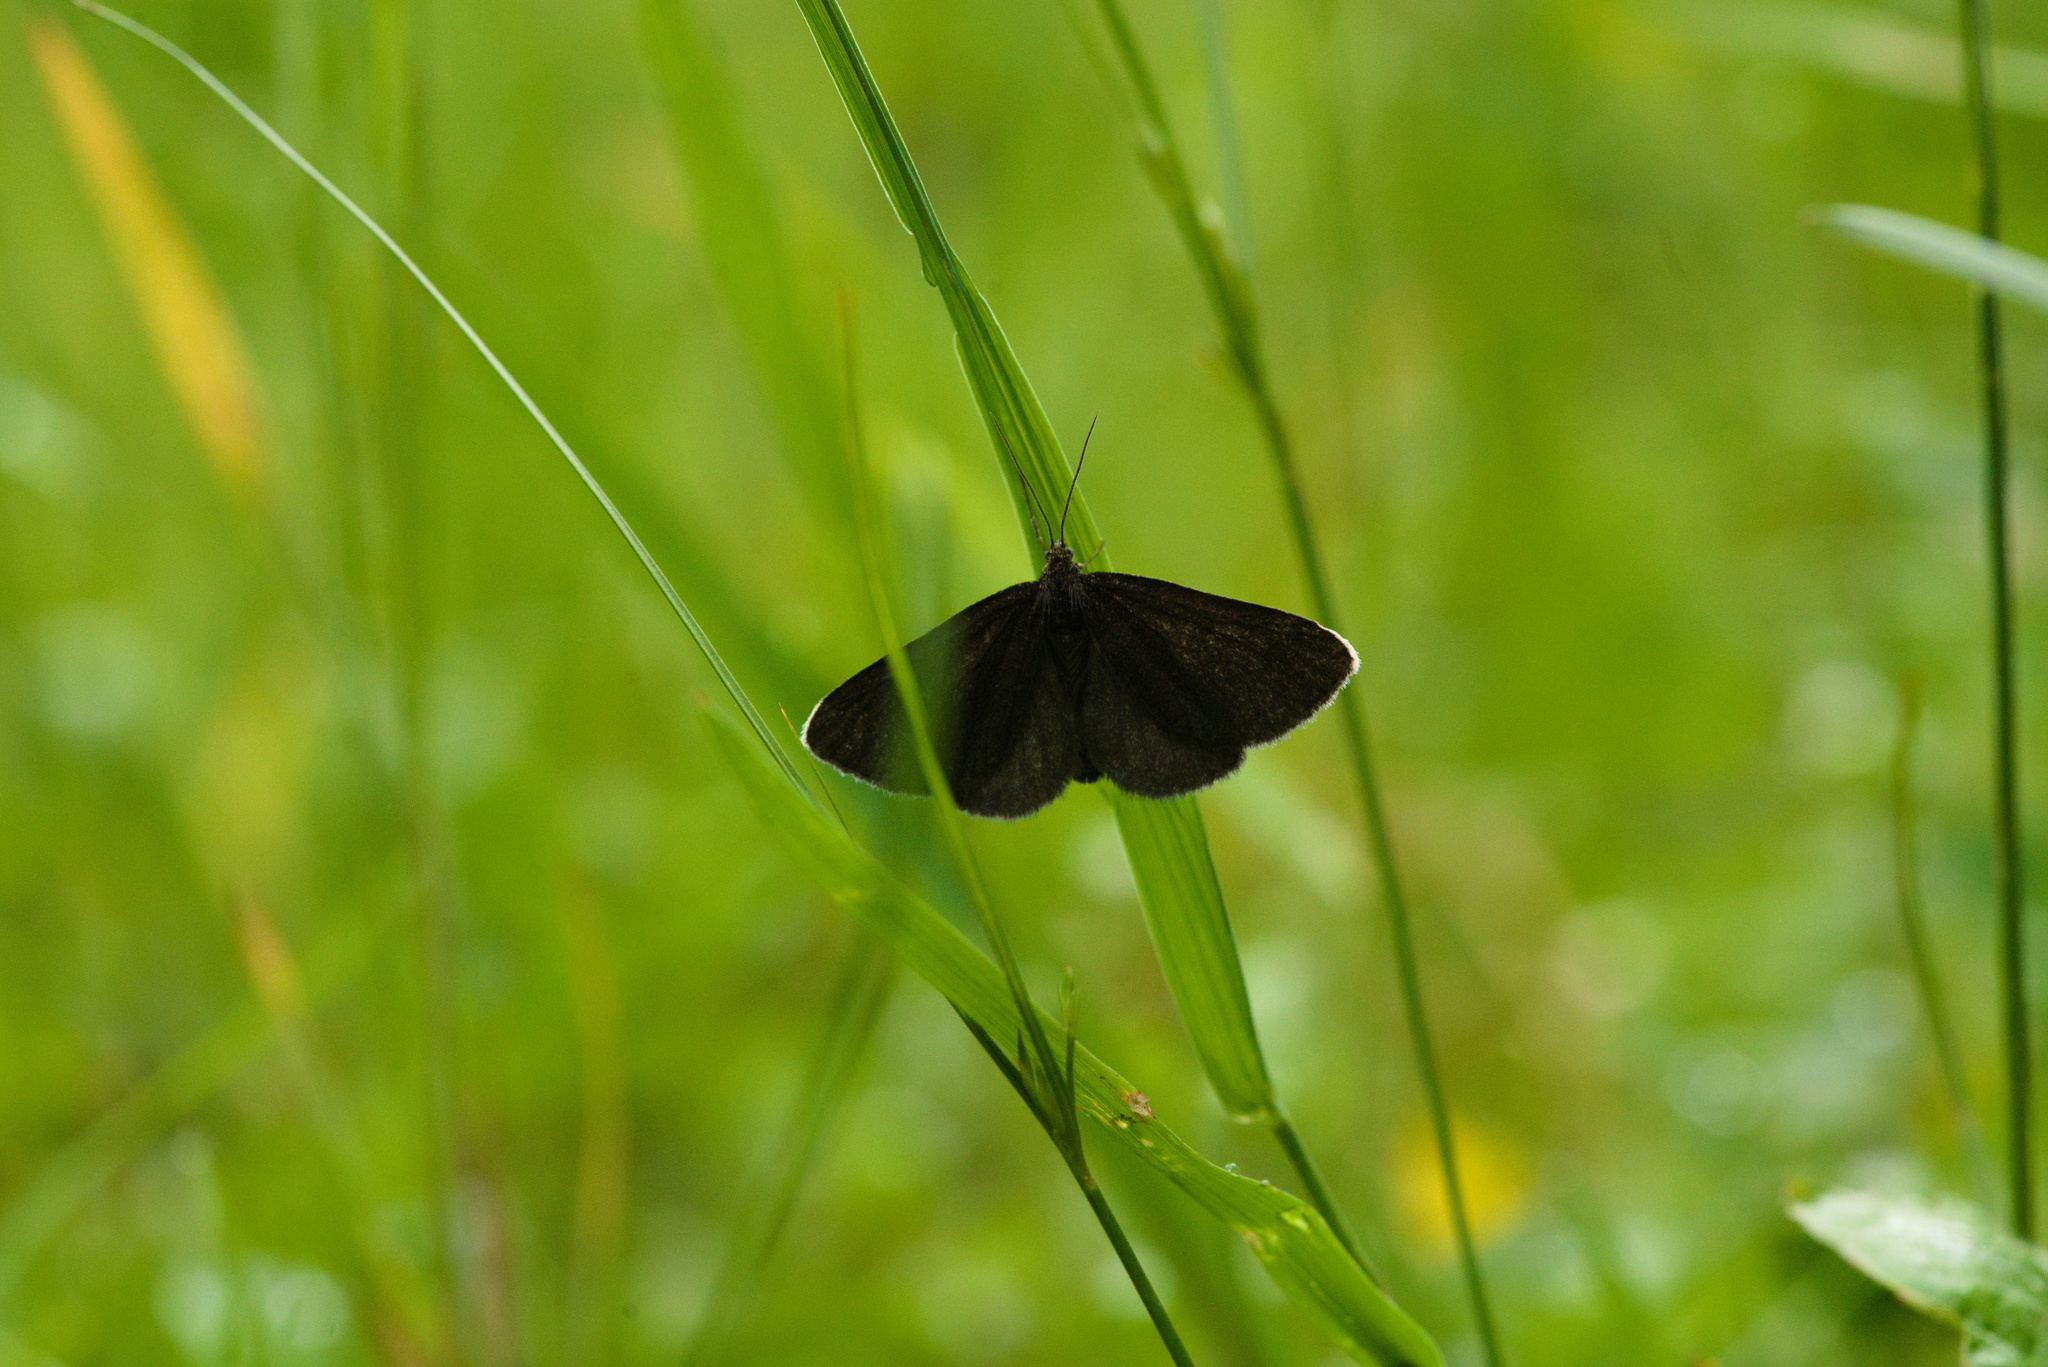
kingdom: Animalia
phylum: Arthropoda
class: Insecta
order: Lepidoptera
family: Geometridae
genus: Odezia
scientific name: Odezia atrata
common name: Chimney sweeper
